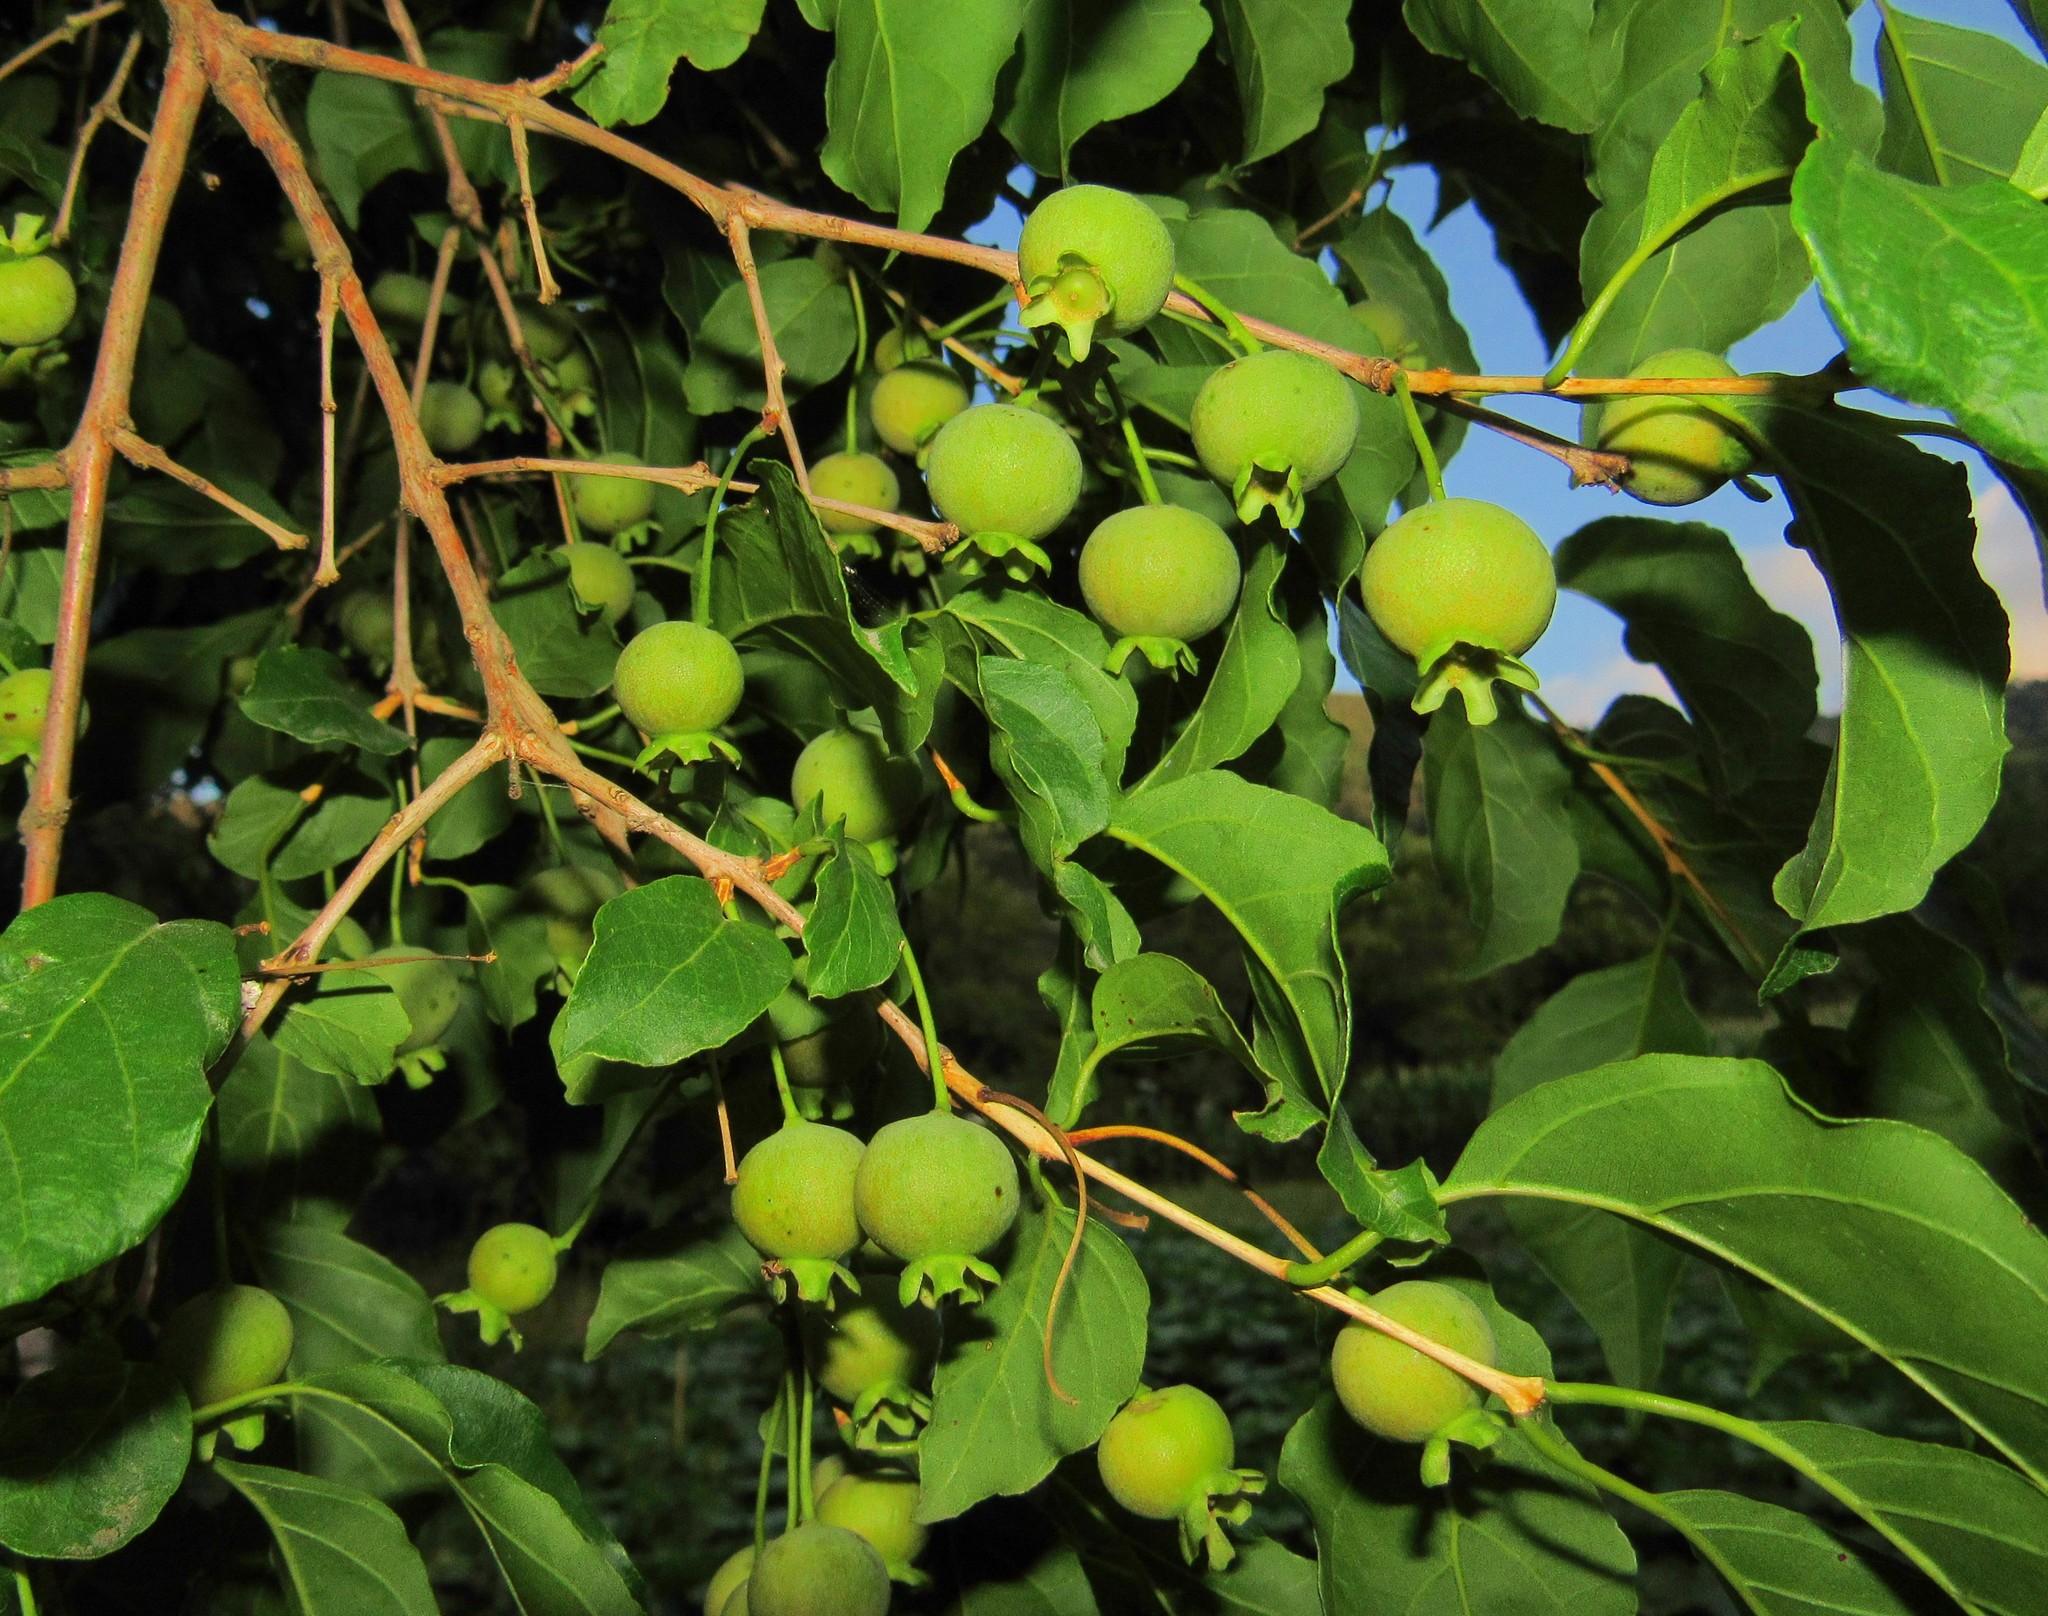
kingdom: Plantae
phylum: Tracheophyta
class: Magnoliopsida
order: Myrtales
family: Myrtaceae
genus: Campomanesia
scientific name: Campomanesia xanthocarpa
